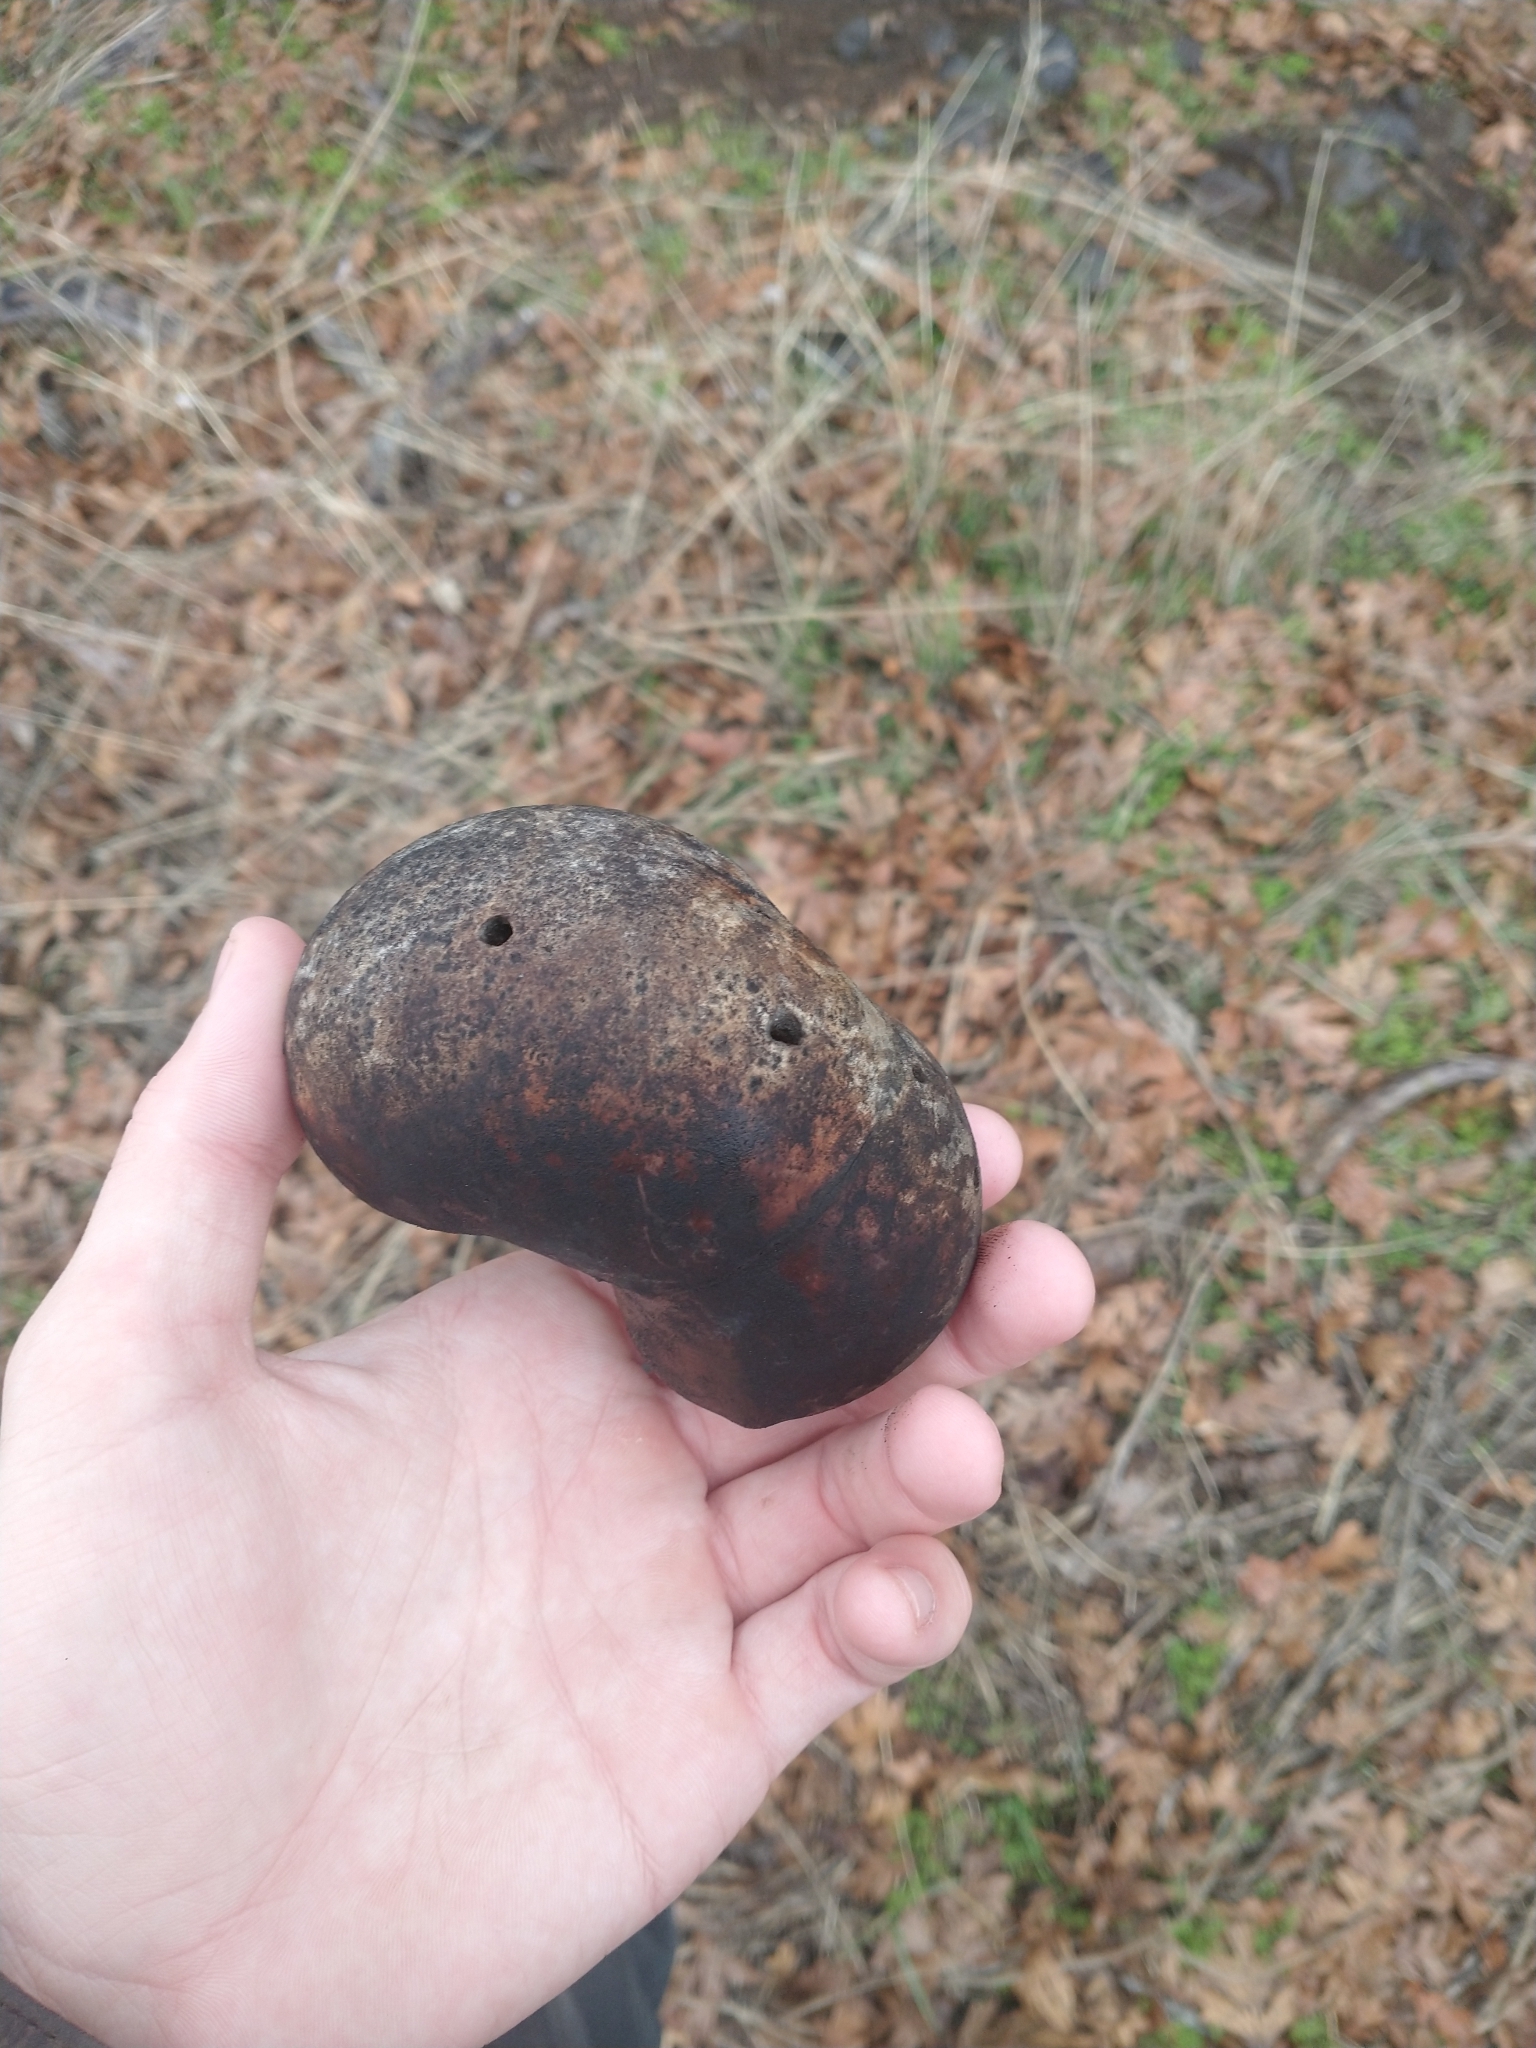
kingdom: Animalia
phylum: Arthropoda
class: Insecta
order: Hymenoptera
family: Cynipidae
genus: Andricus
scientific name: Andricus quercuscalifornicus
